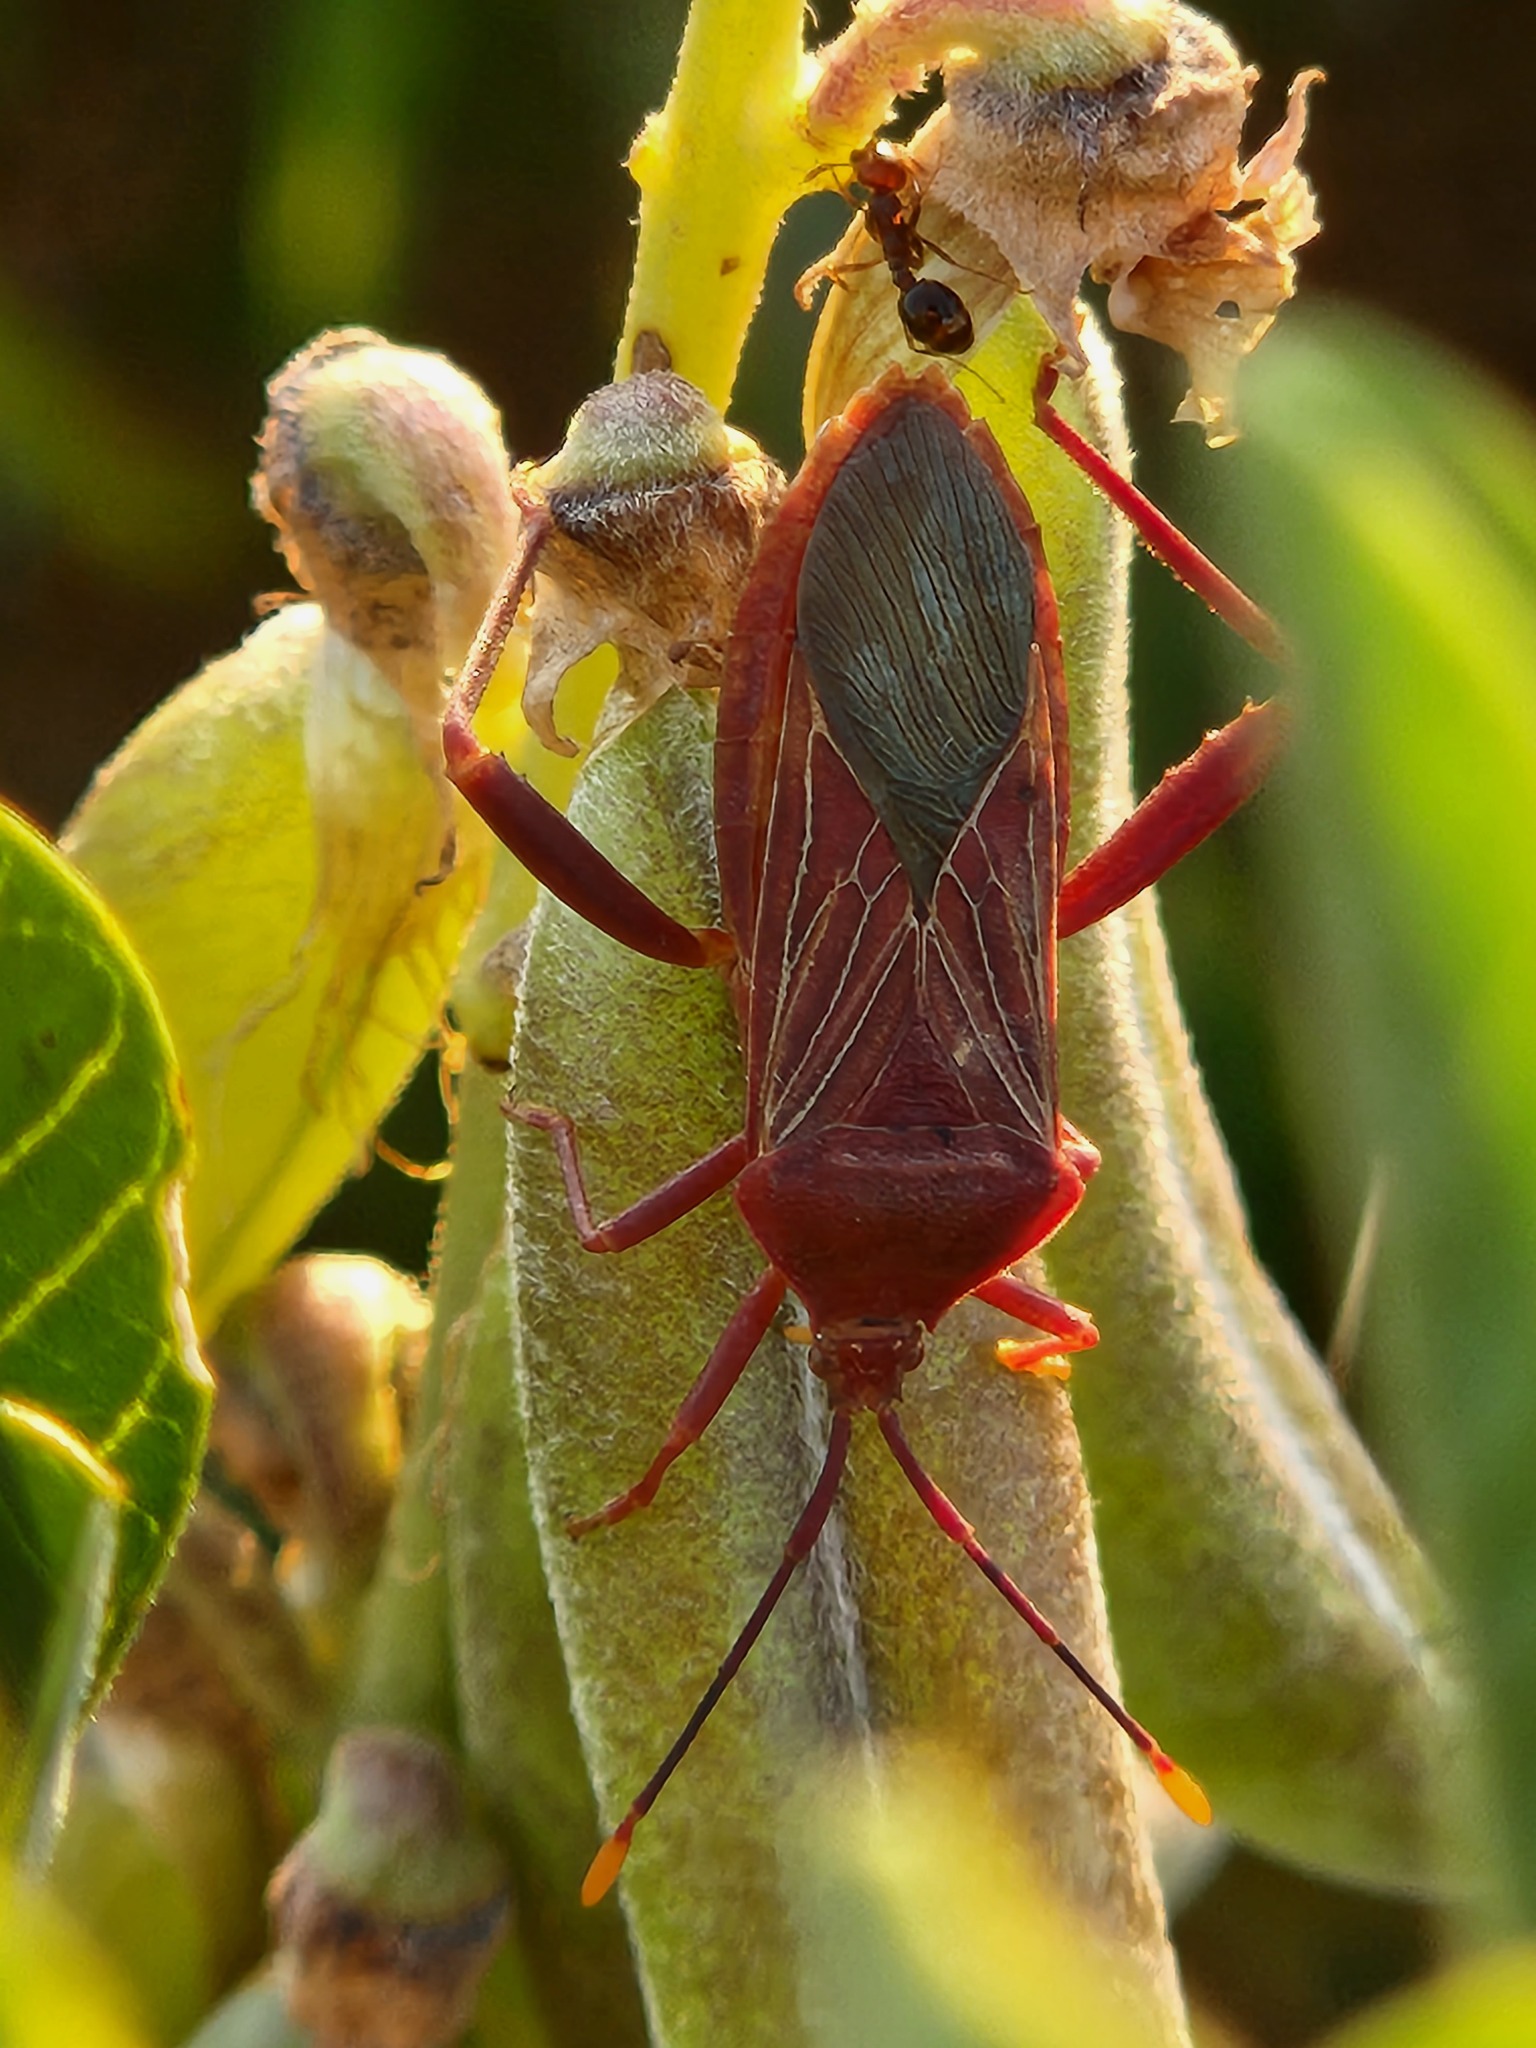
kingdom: Animalia
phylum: Arthropoda
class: Insecta
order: Hemiptera
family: Coreidae
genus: Athaumastus
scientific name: Athaumastus haematicus
